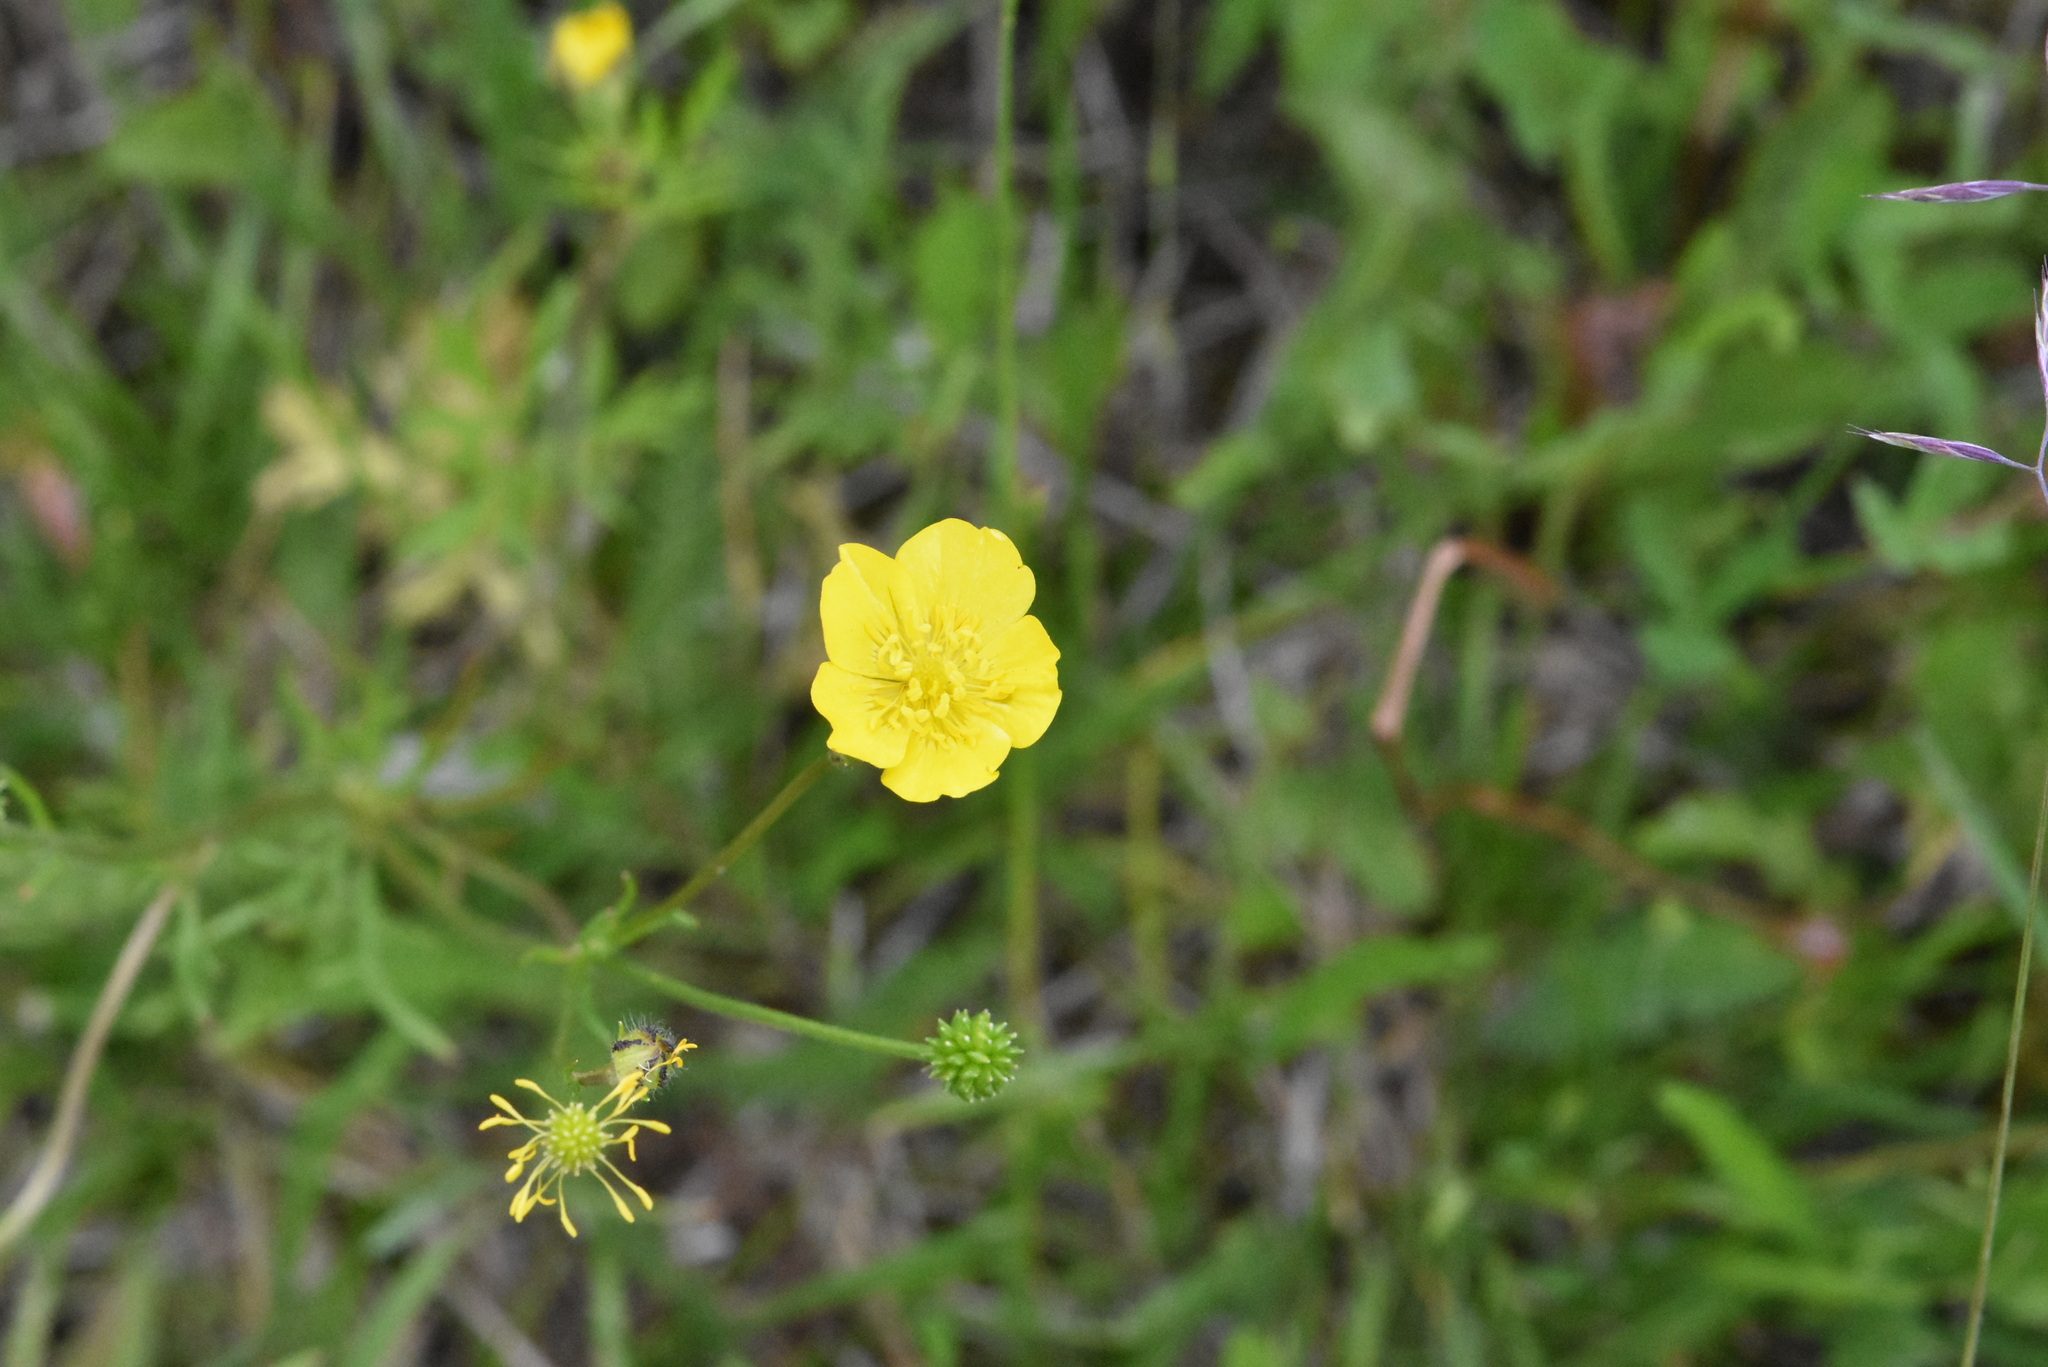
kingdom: Plantae
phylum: Tracheophyta
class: Magnoliopsida
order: Ranunculales
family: Ranunculaceae
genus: Ranunculus
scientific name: Ranunculus polyanthemos
